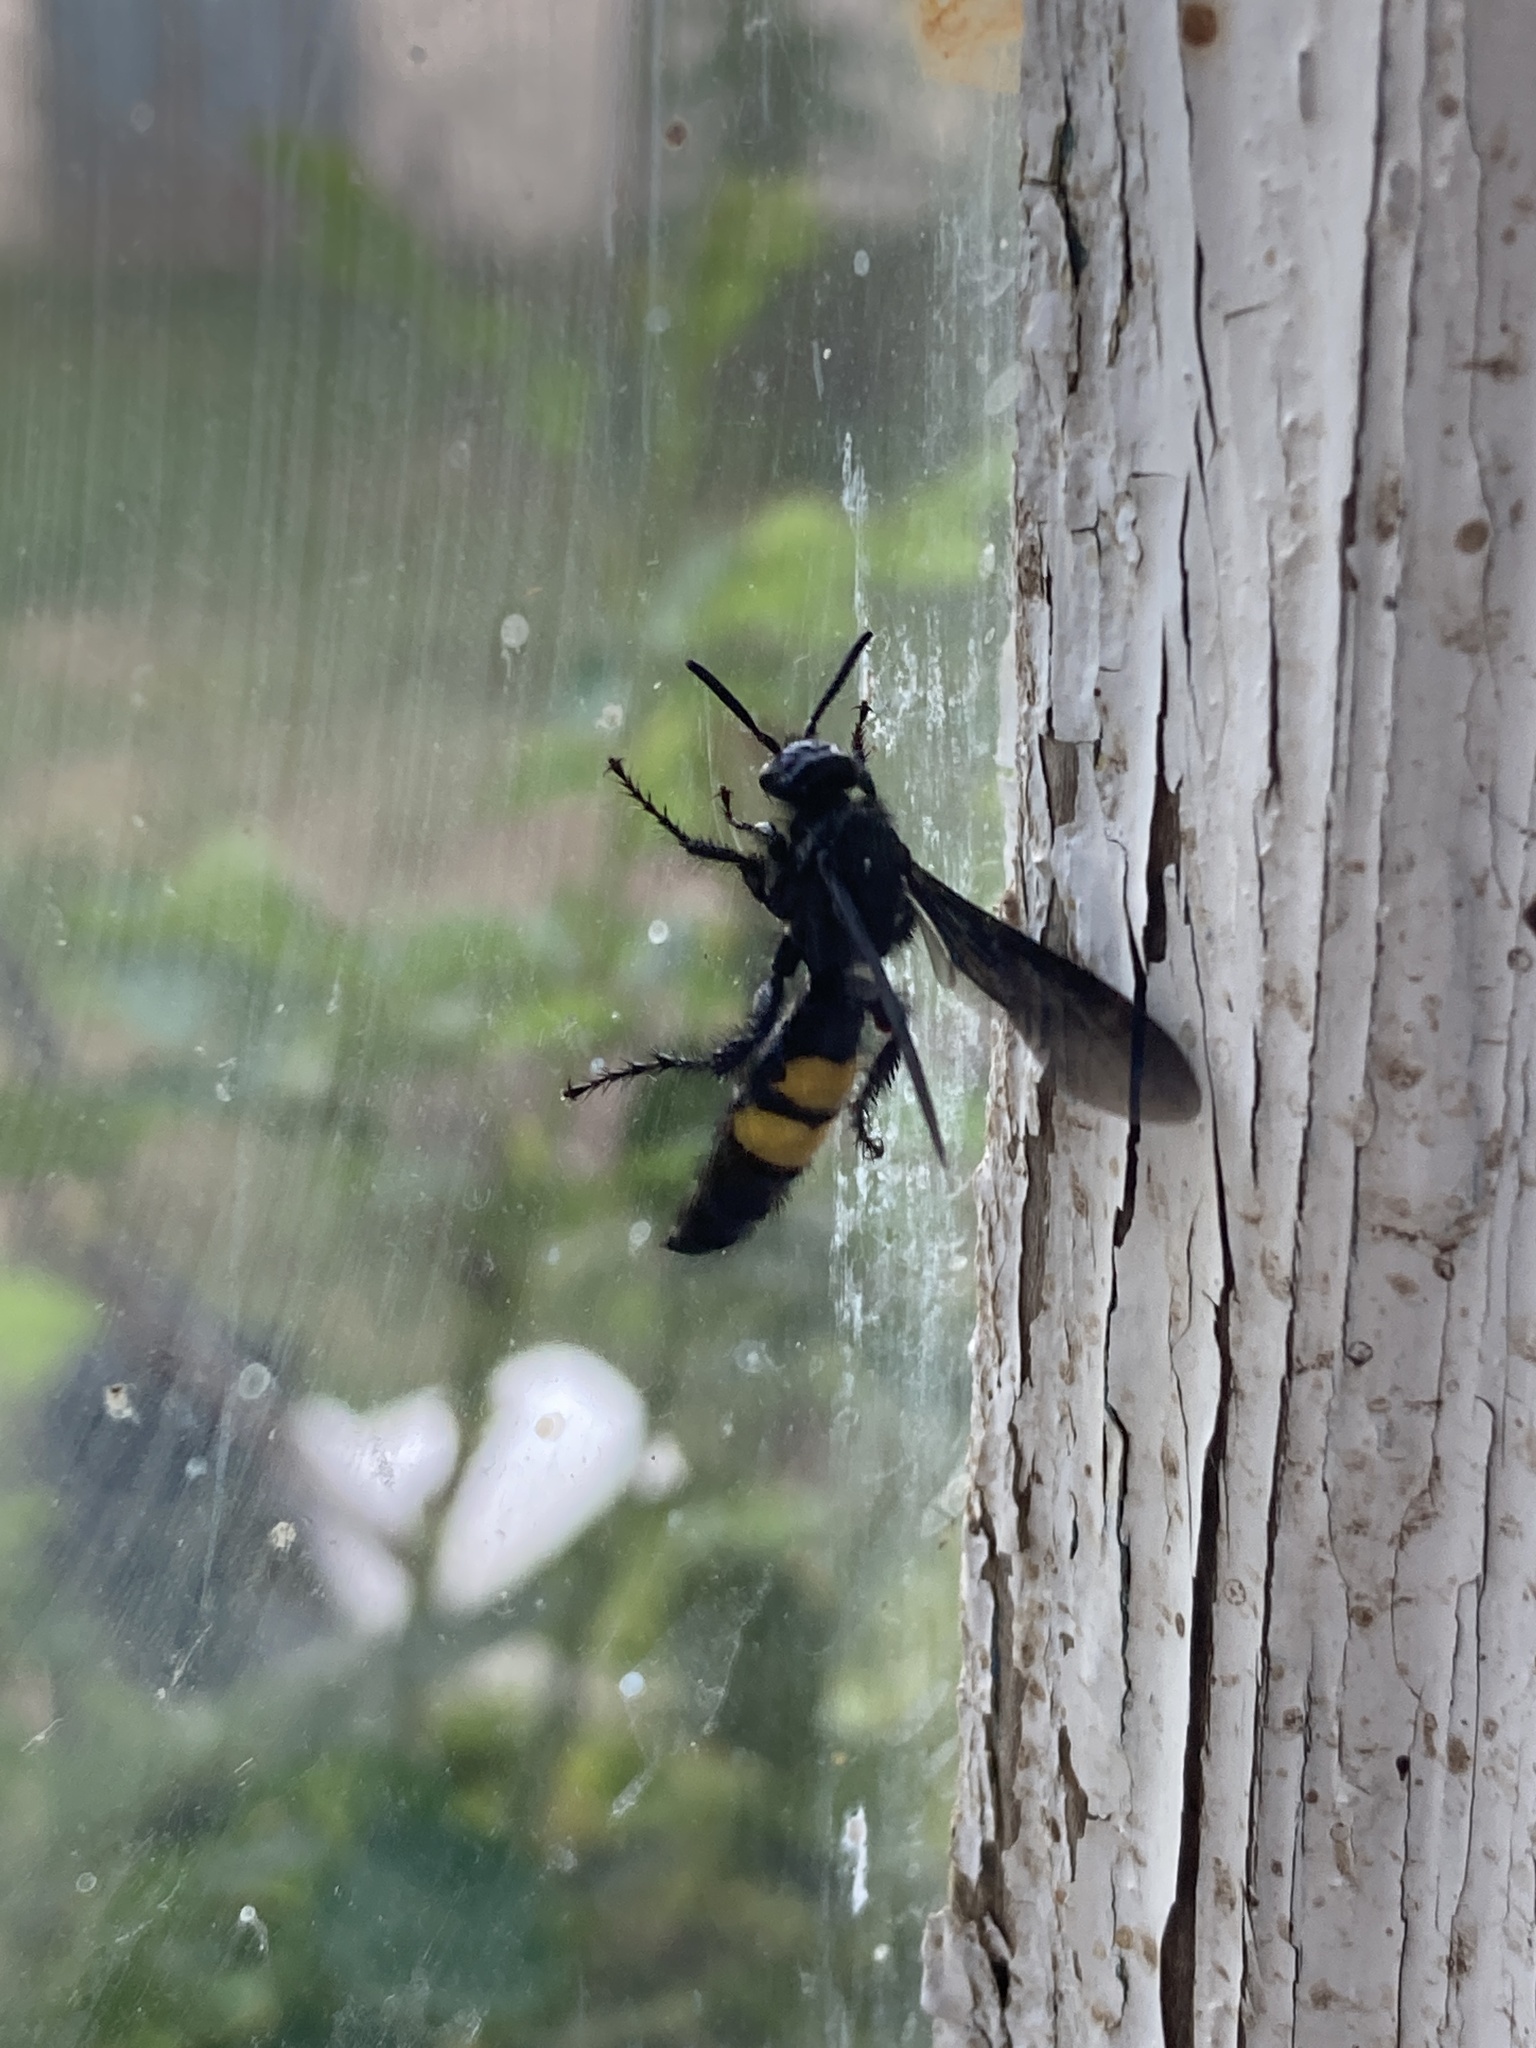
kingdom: Animalia
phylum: Arthropoda
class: Insecta
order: Hymenoptera
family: Scoliidae
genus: Scolia
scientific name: Scolia hirta
